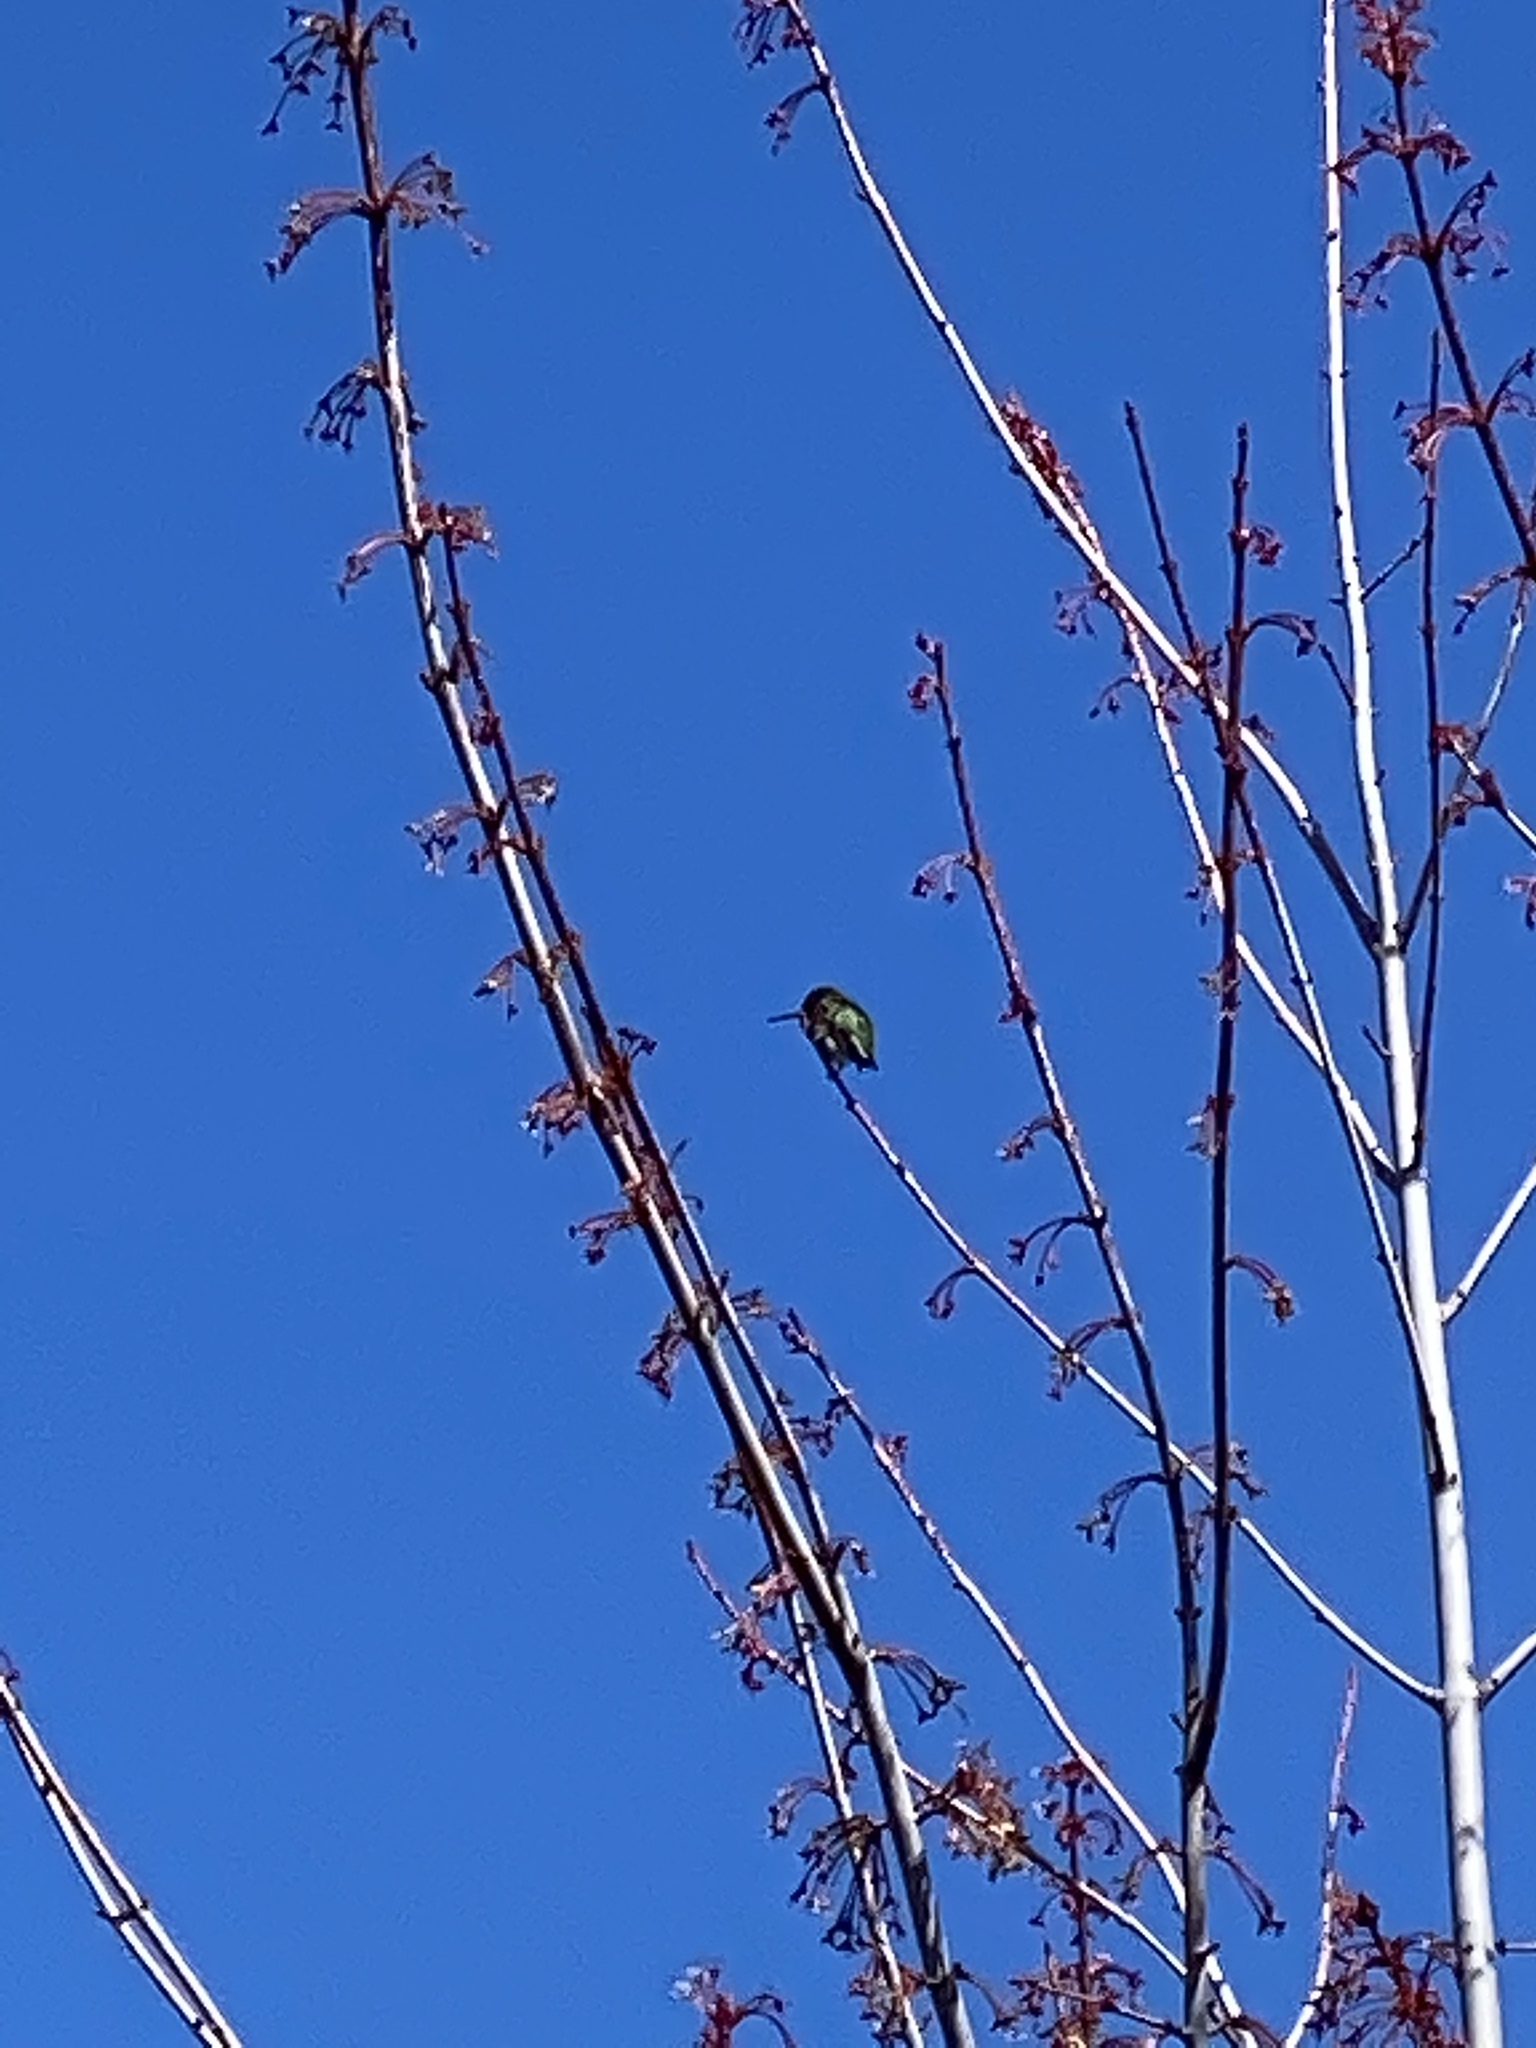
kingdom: Animalia
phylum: Chordata
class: Aves
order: Apodiformes
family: Trochilidae
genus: Calypte
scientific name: Calypte anna
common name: Anna's hummingbird
